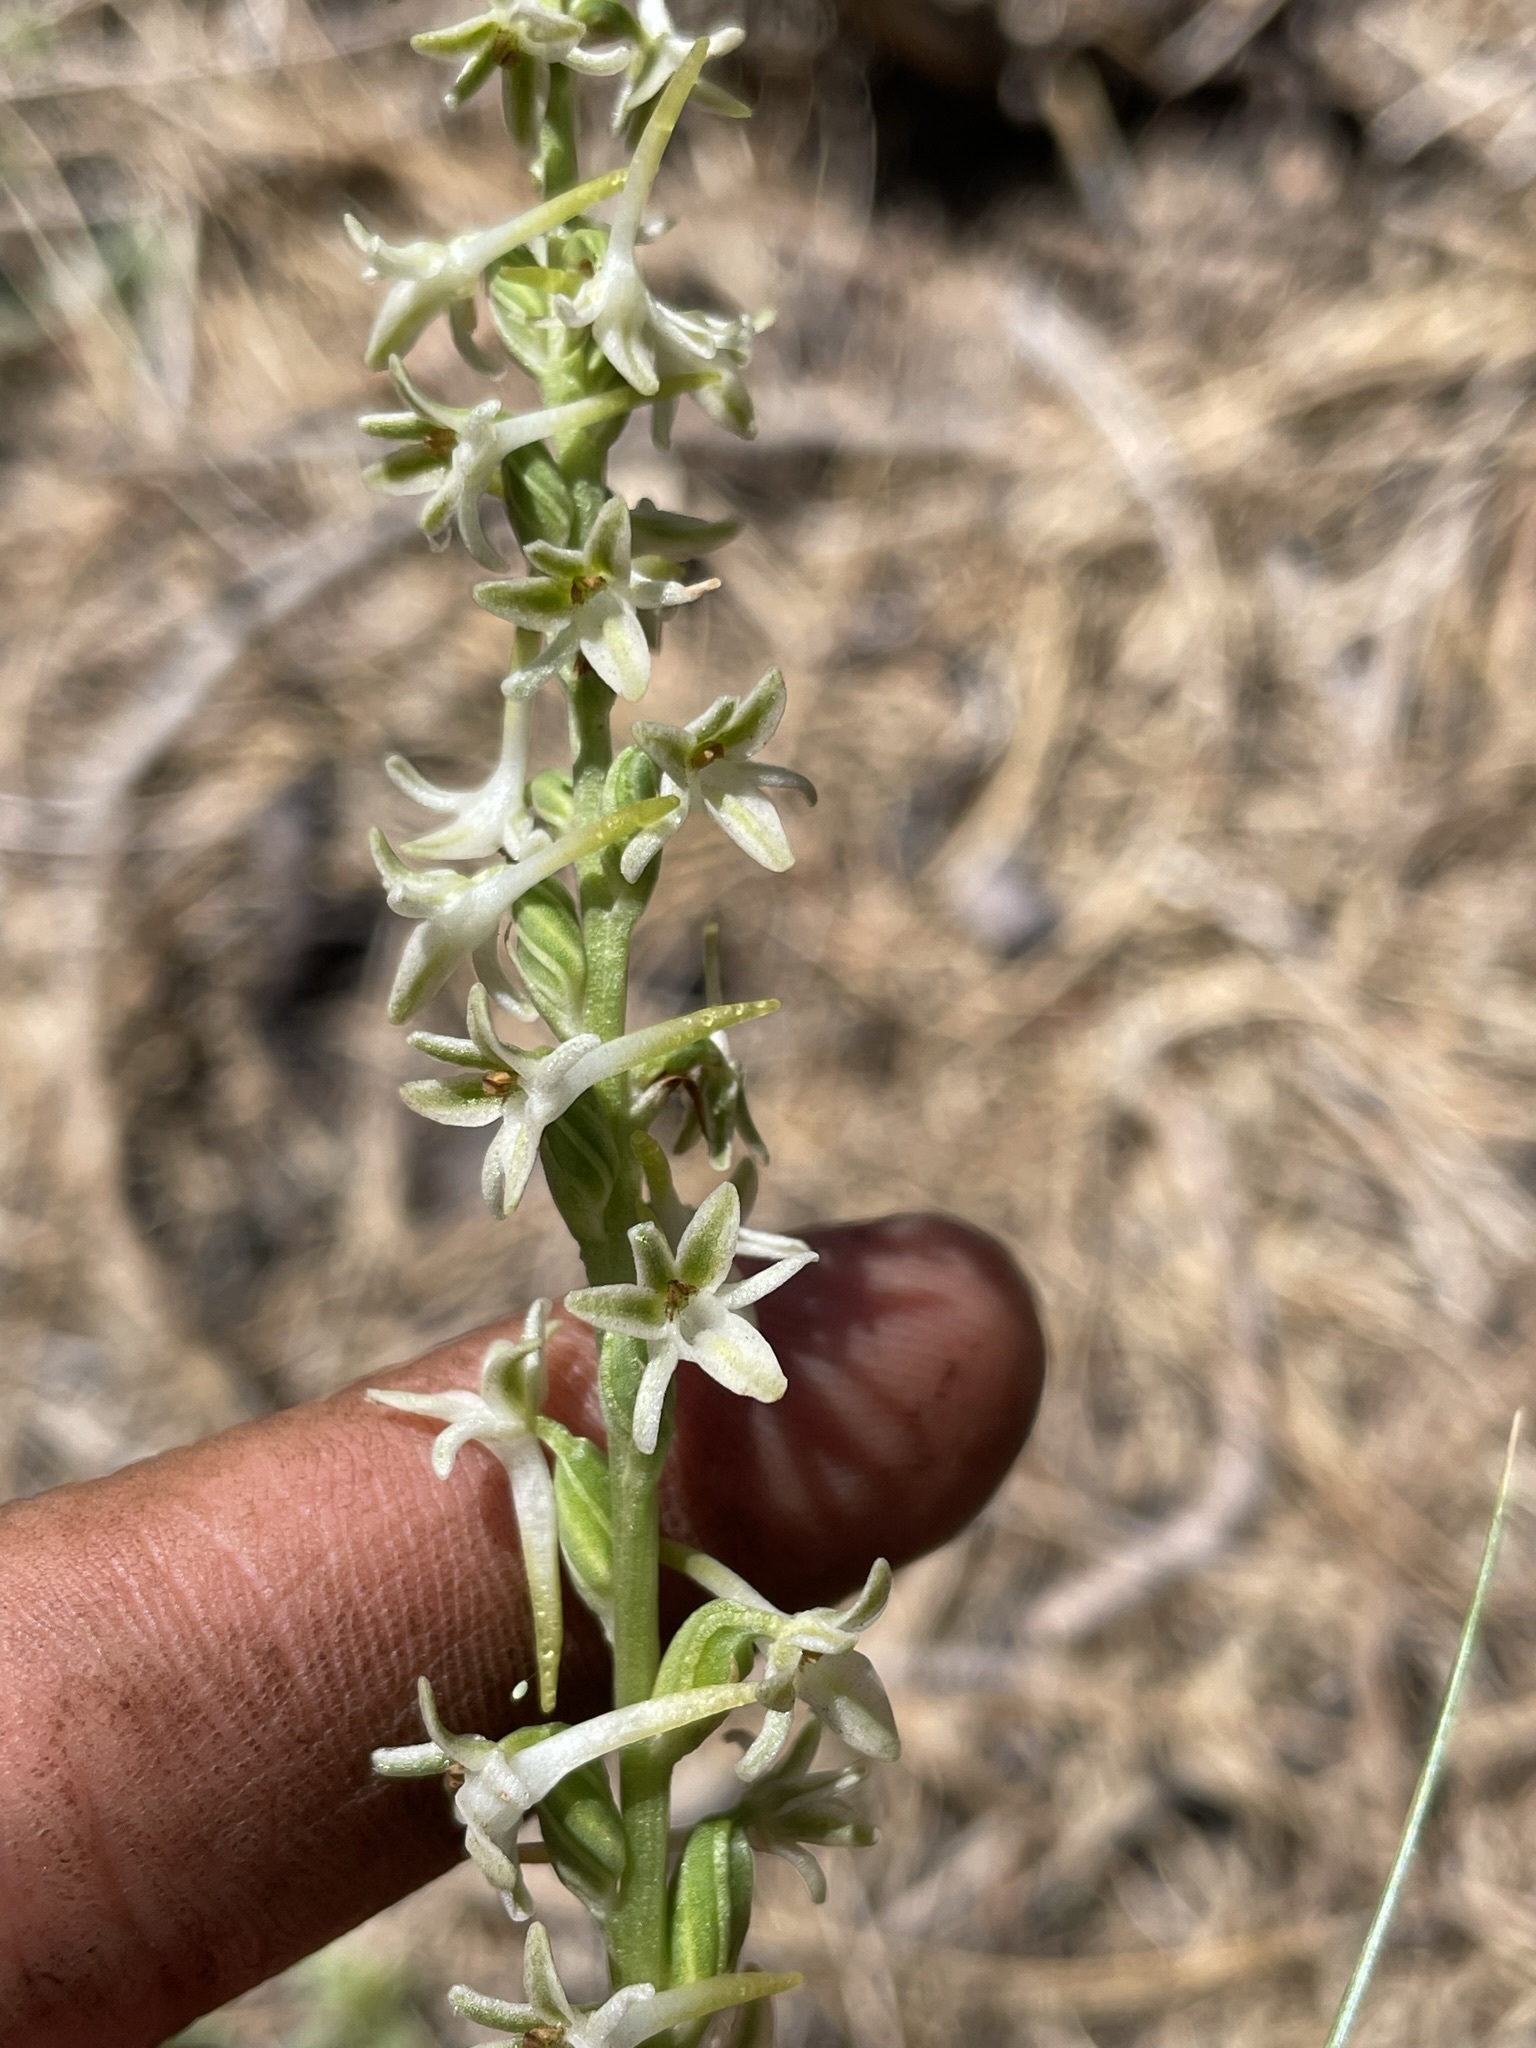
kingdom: Plantae
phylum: Tracheophyta
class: Liliopsida
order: Asparagales
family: Orchidaceae
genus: Platanthera
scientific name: Platanthera transversa
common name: Royal rein orchid
